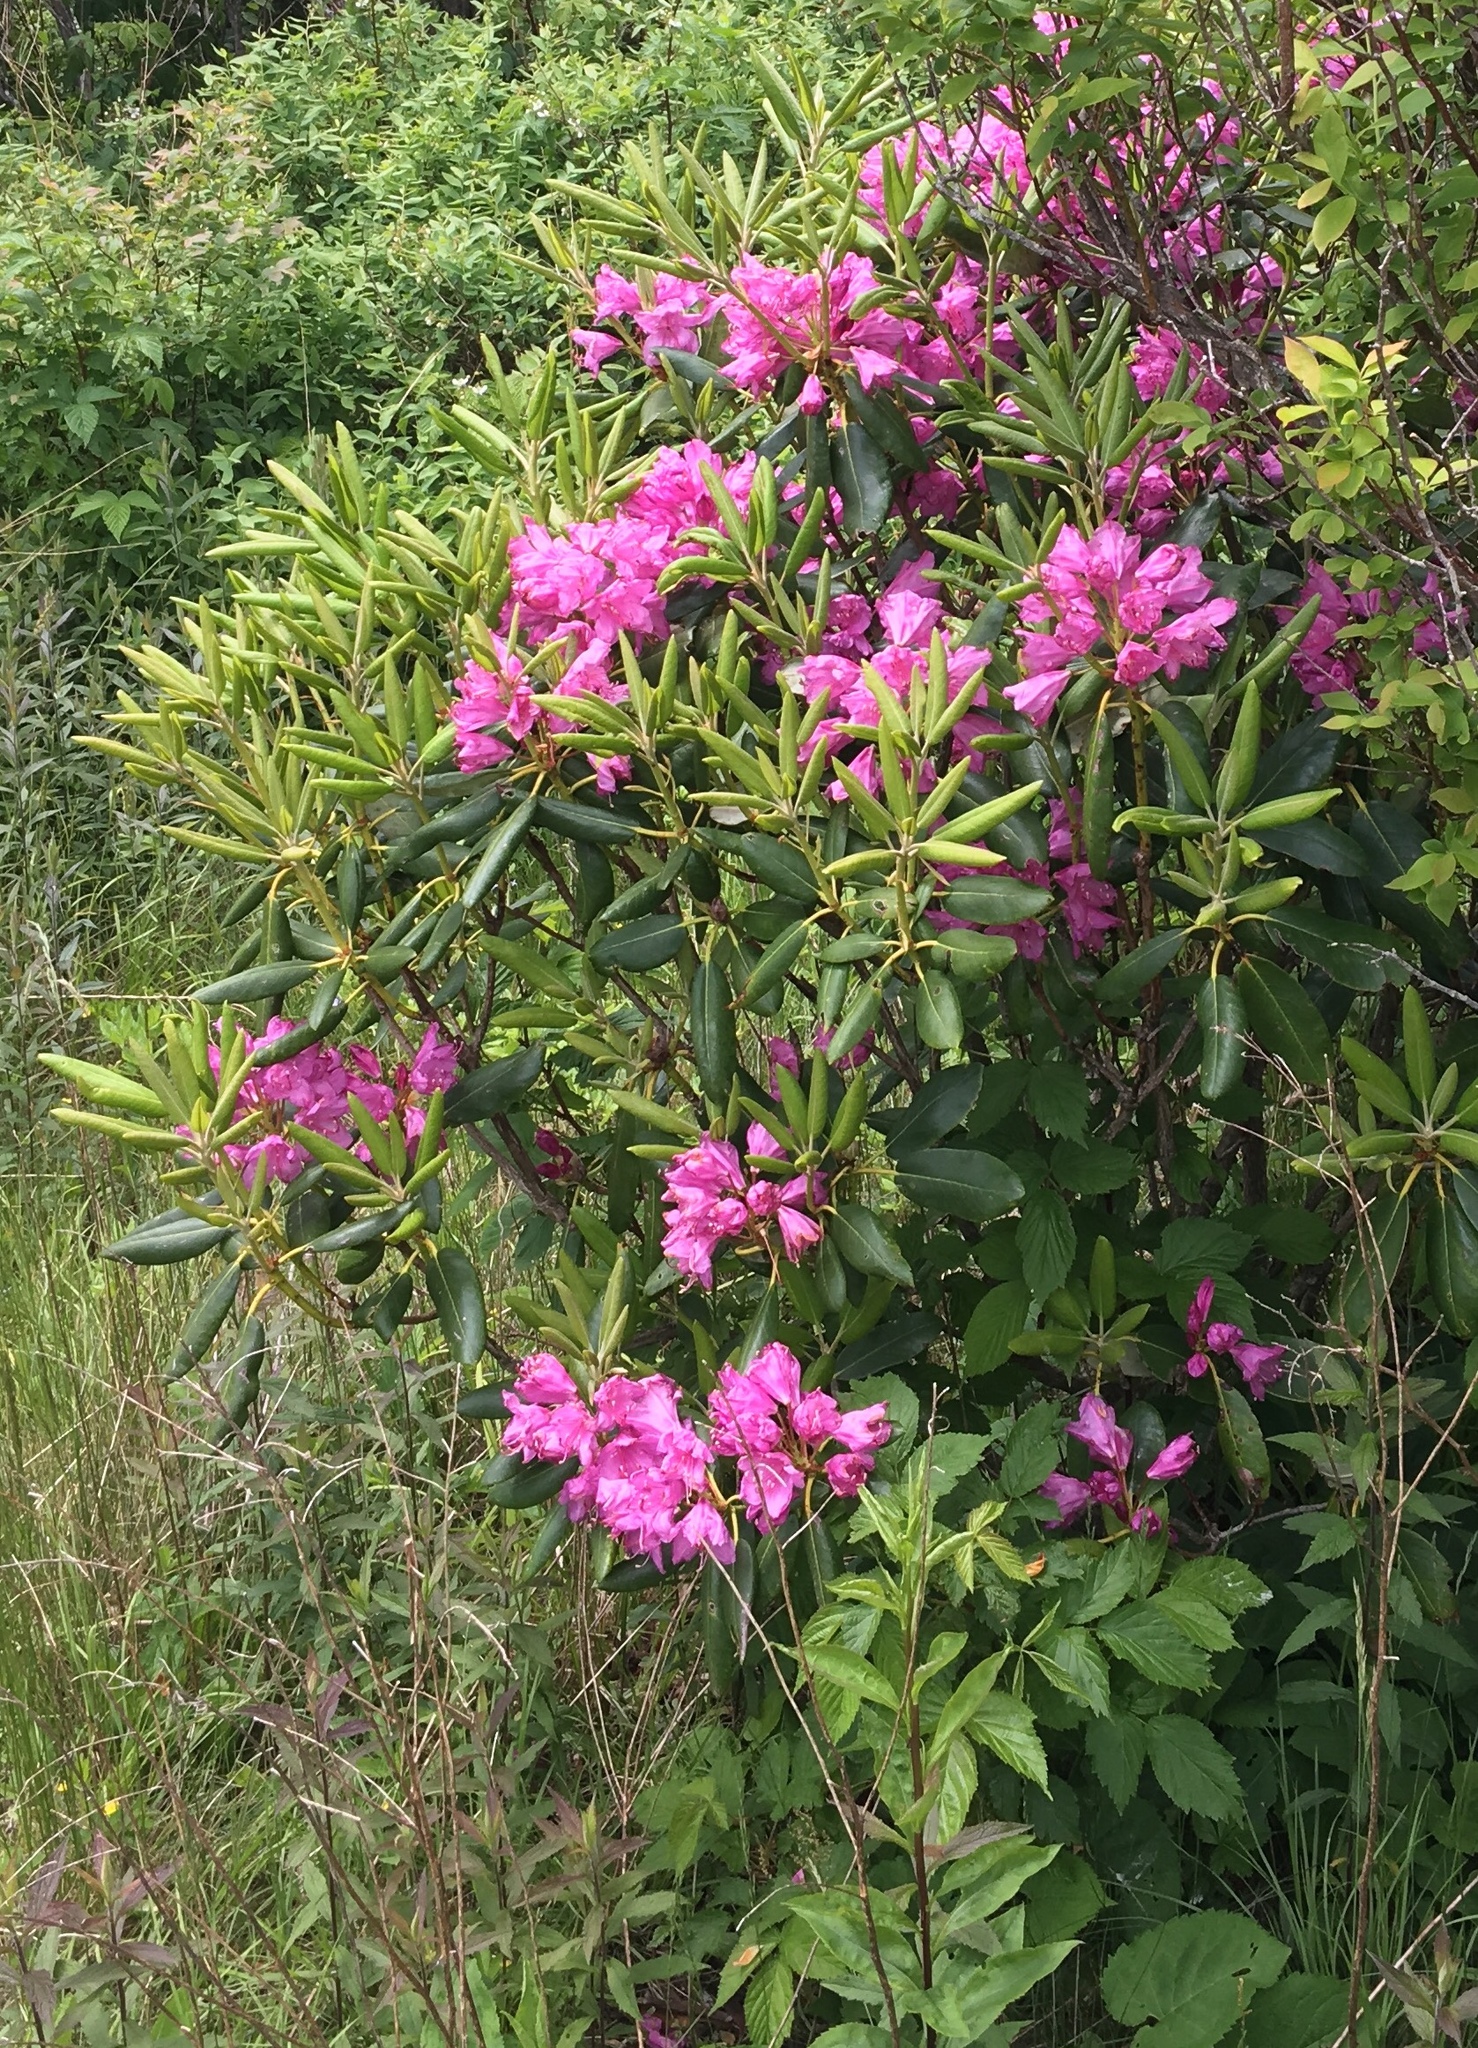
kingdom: Plantae
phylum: Tracheophyta
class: Magnoliopsida
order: Ericales
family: Ericaceae
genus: Rhododendron
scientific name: Rhododendron catawbiense
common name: Catawba rhododendron
